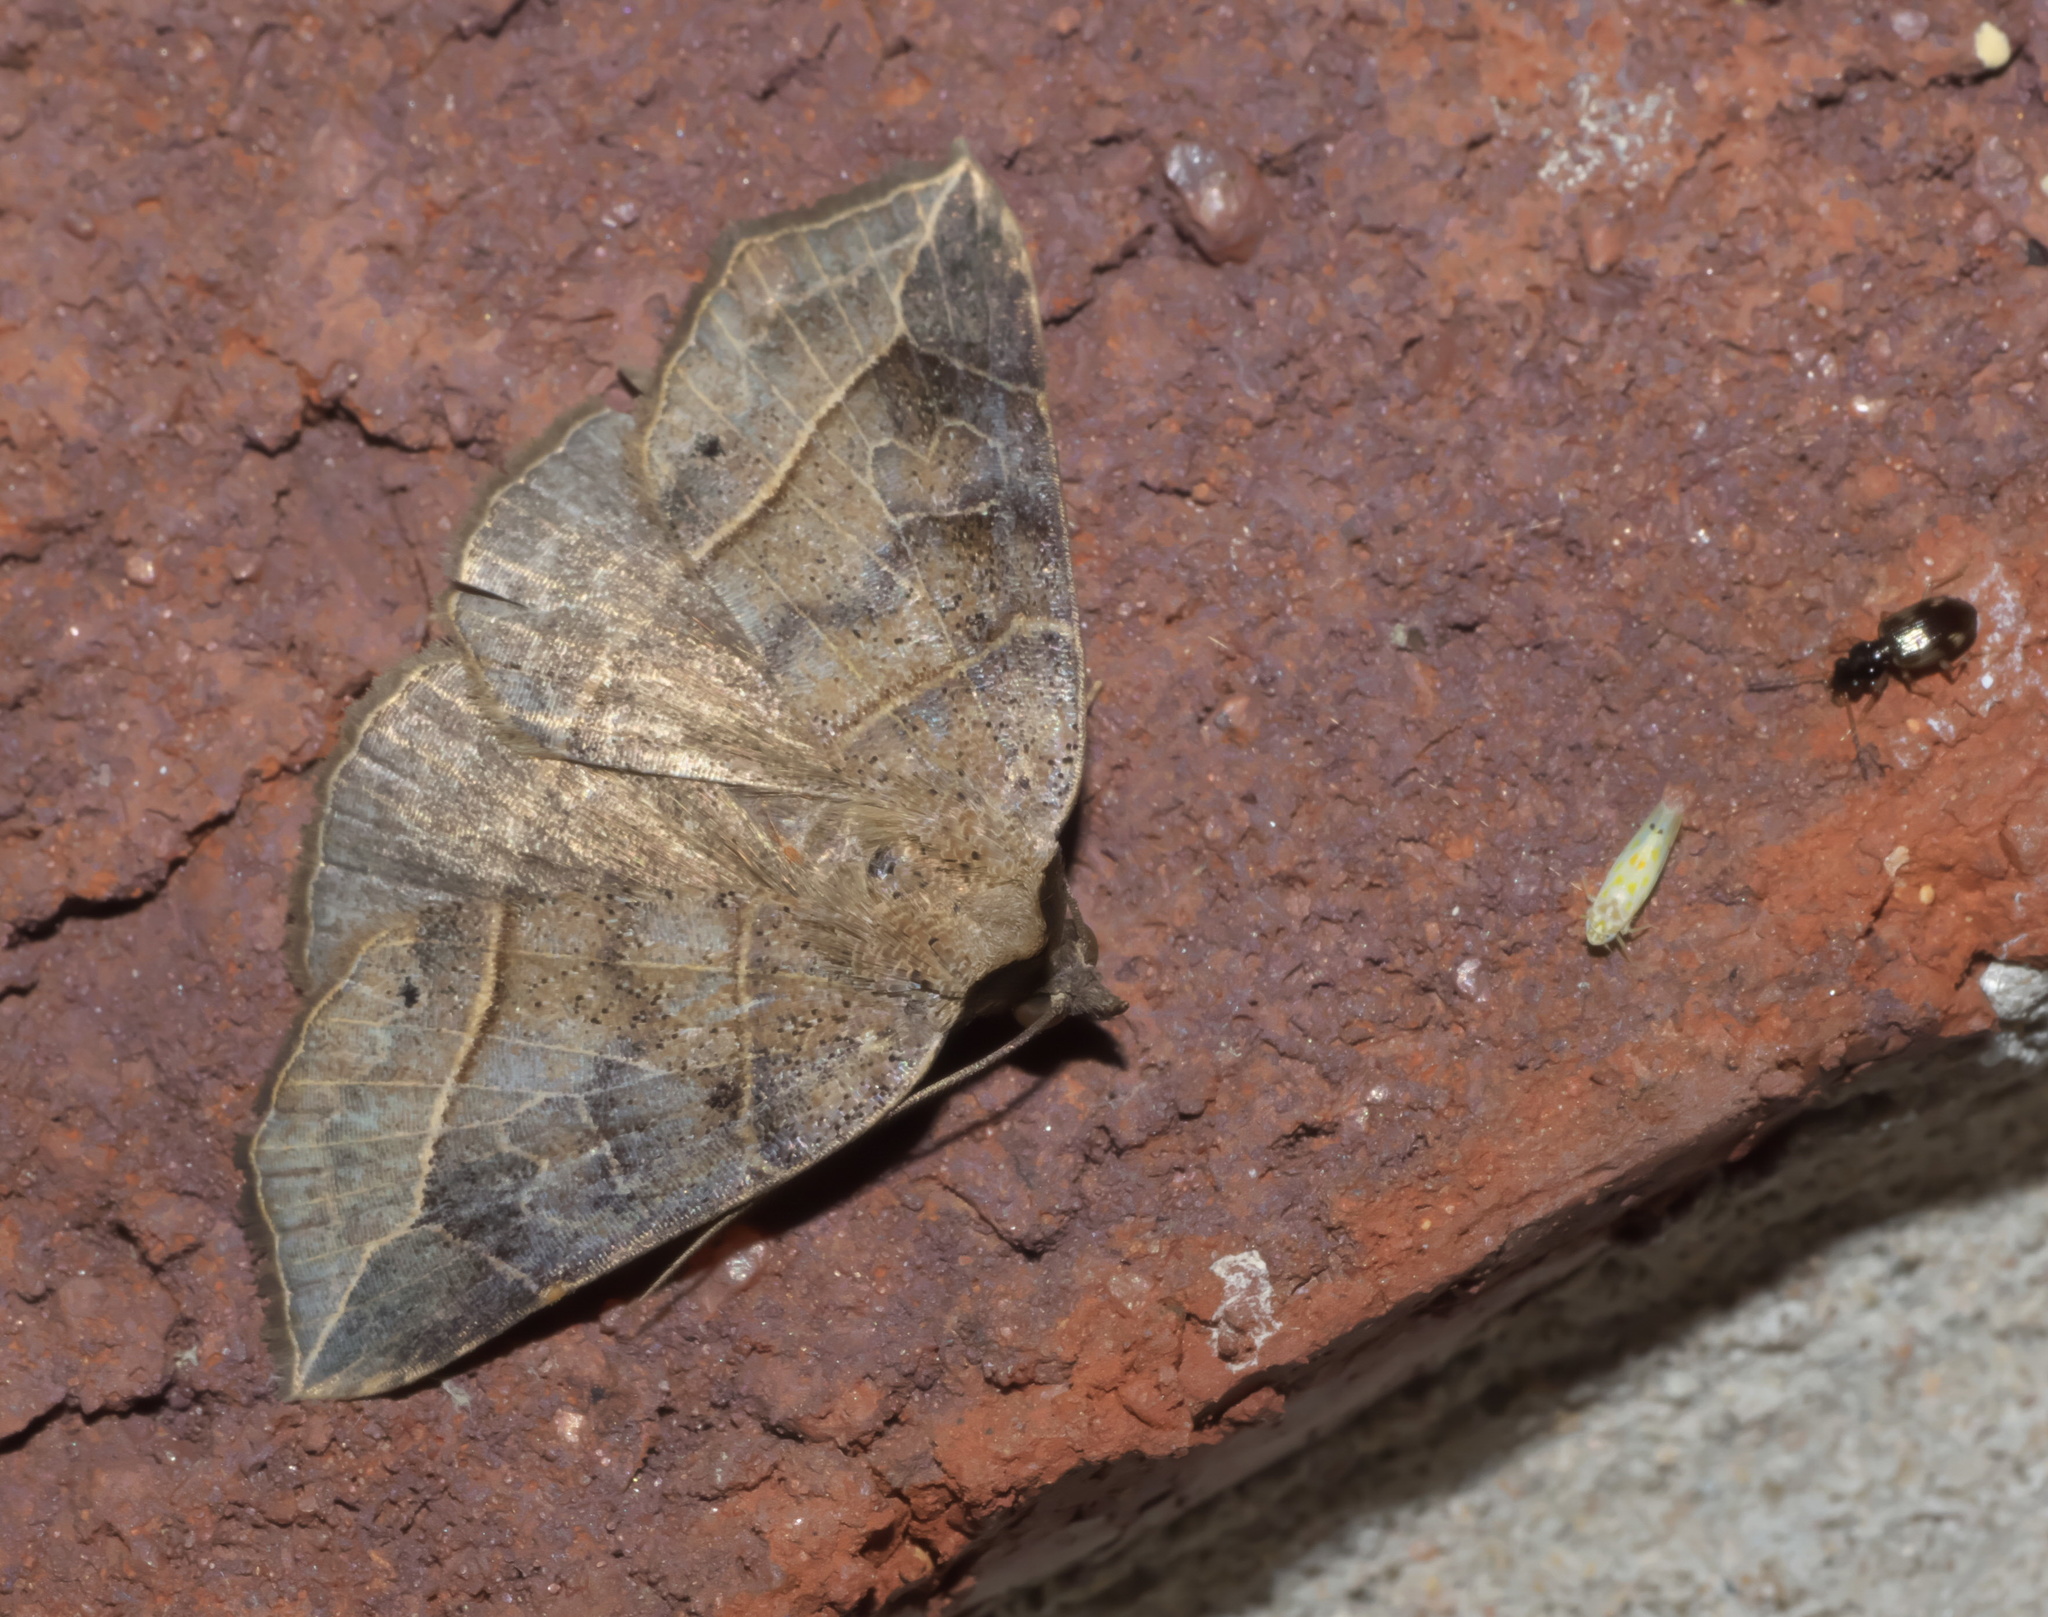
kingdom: Animalia
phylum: Arthropoda
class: Insecta
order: Lepidoptera
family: Erebidae
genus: Isogona
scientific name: Isogona tenuis
